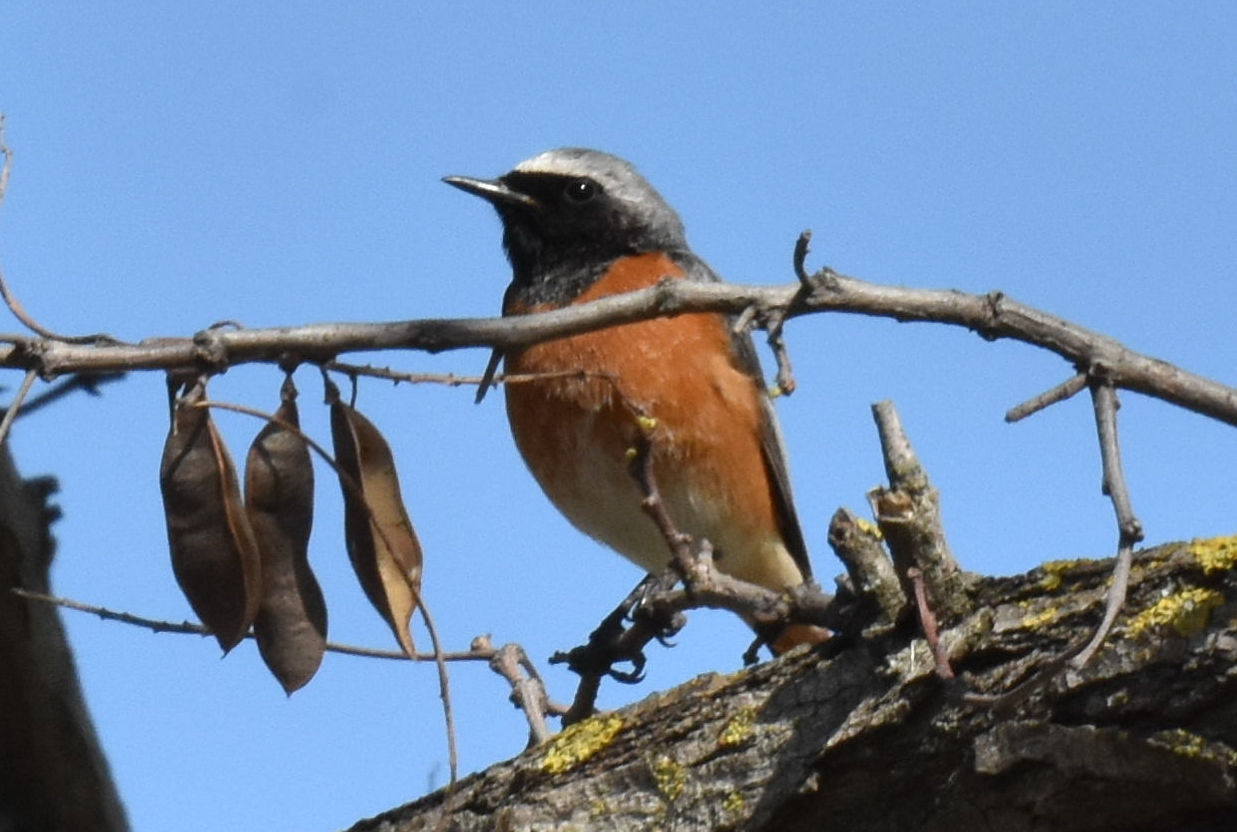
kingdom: Animalia
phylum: Chordata
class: Aves
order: Passeriformes
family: Muscicapidae
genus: Phoenicurus
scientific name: Phoenicurus phoenicurus
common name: Common redstart
